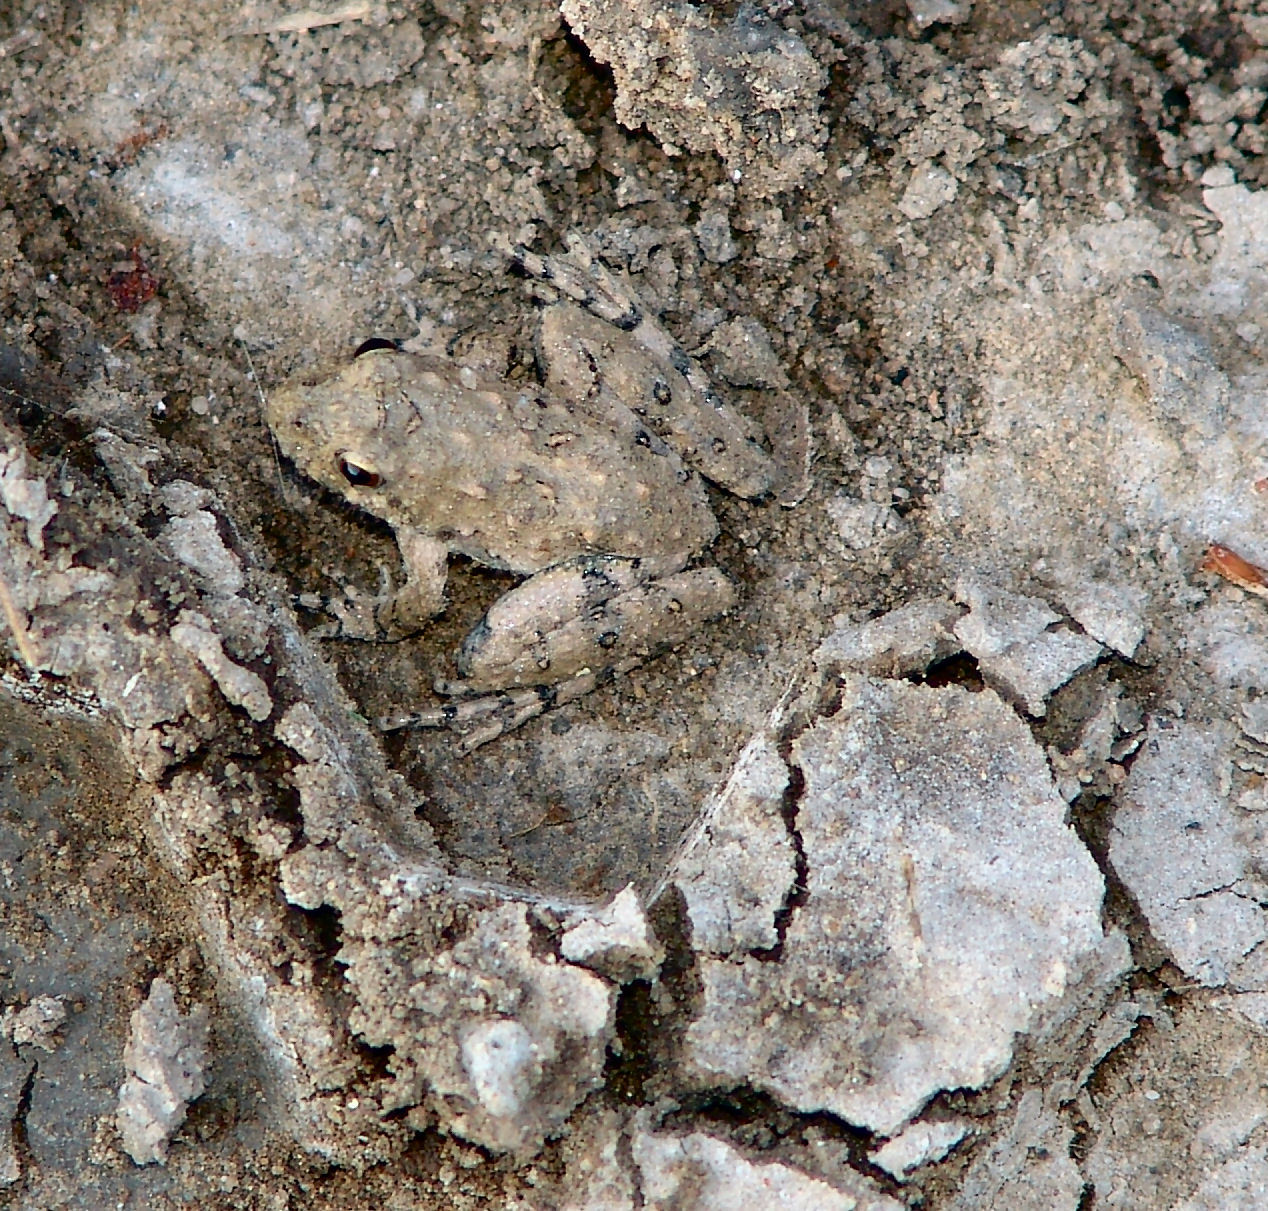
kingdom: Animalia
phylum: Chordata
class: Amphibia
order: Anura
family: Hylidae
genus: Acris
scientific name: Acris blanchardi
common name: Blanchard's cricket frog
